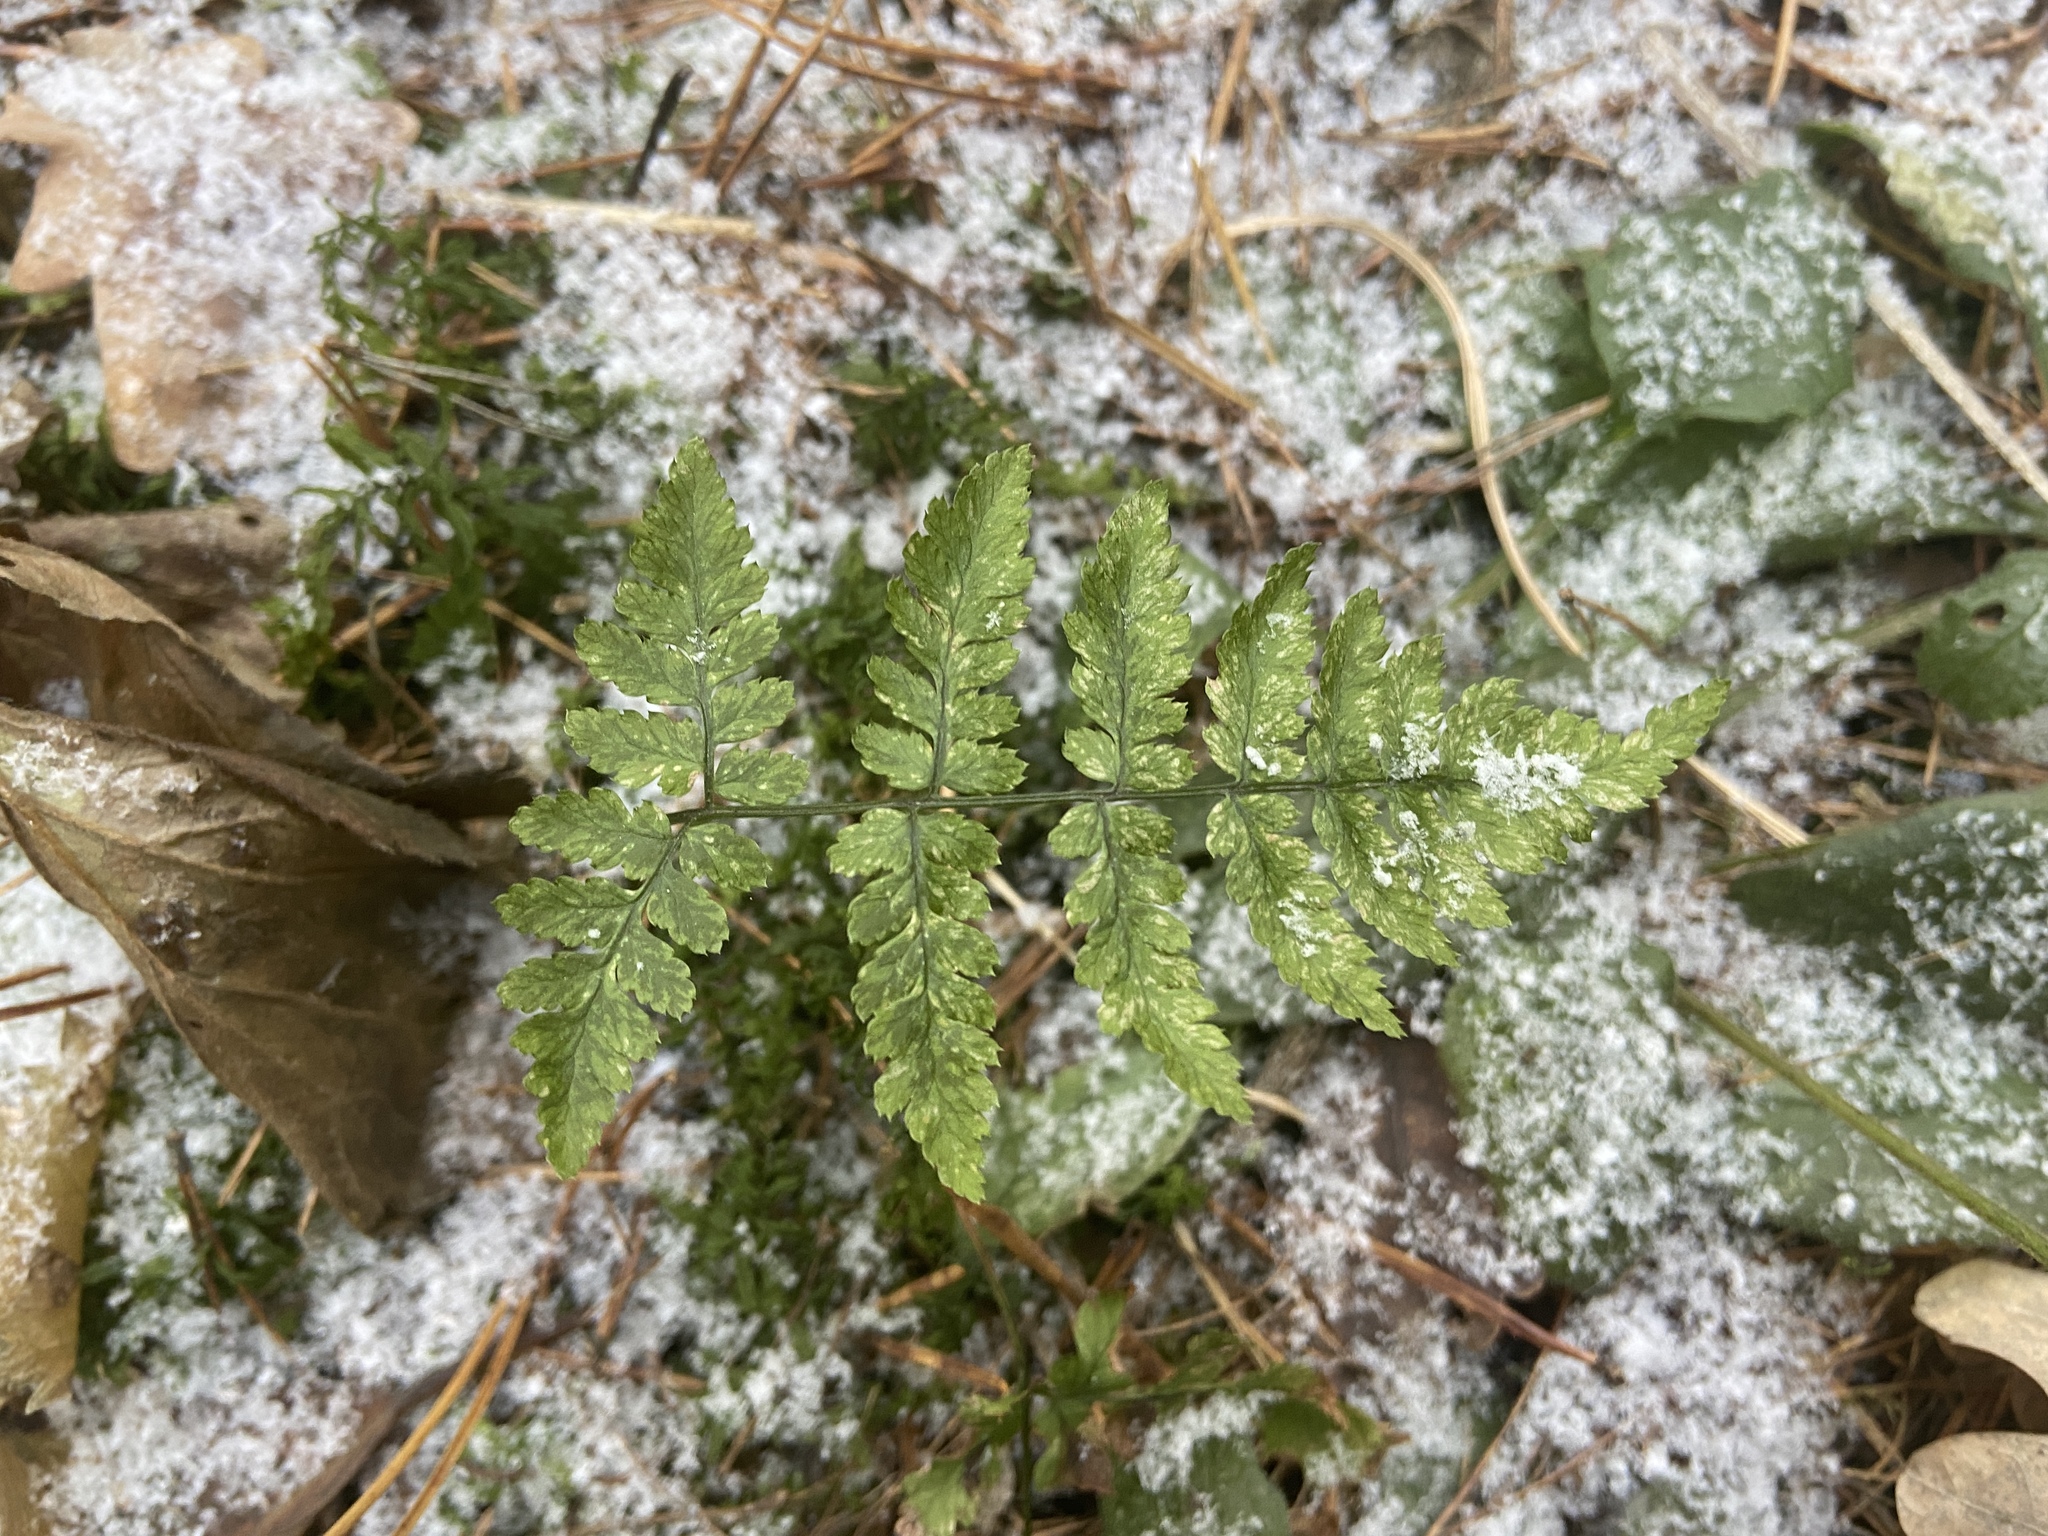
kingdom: Plantae
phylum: Tracheophyta
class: Polypodiopsida
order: Polypodiales
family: Dryopteridaceae
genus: Dryopteris
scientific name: Dryopteris carthusiana
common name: Narrow buckler-fern
